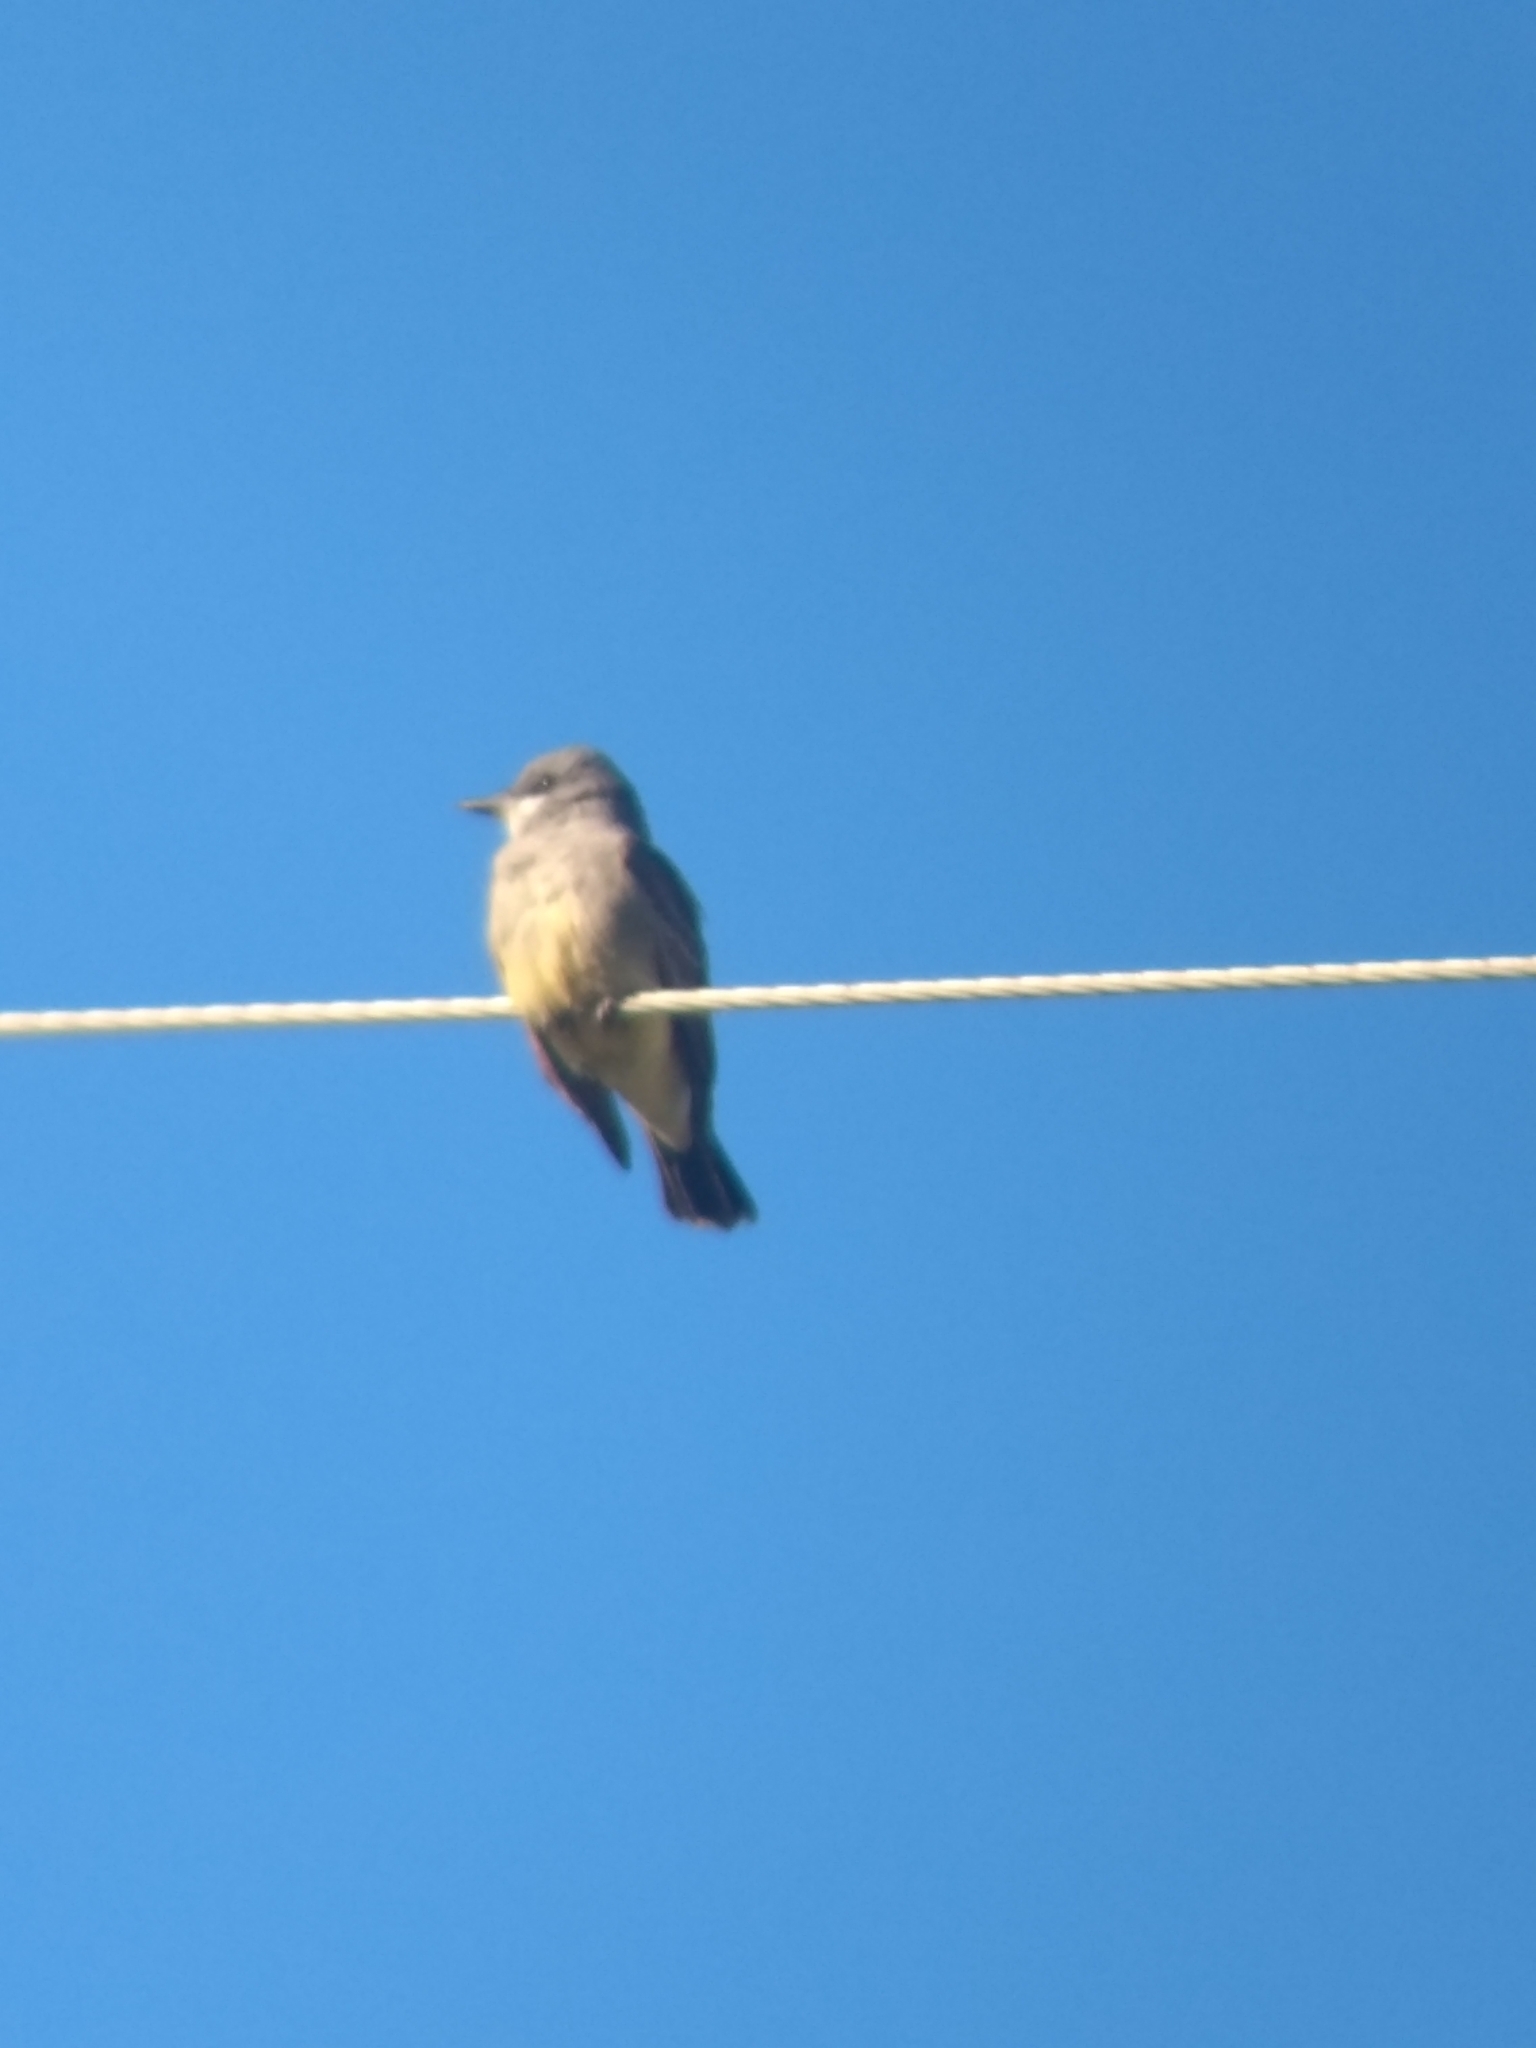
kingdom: Animalia
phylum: Chordata
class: Aves
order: Passeriformes
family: Tyrannidae
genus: Tyrannus
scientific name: Tyrannus vociferans
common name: Cassin's kingbird
